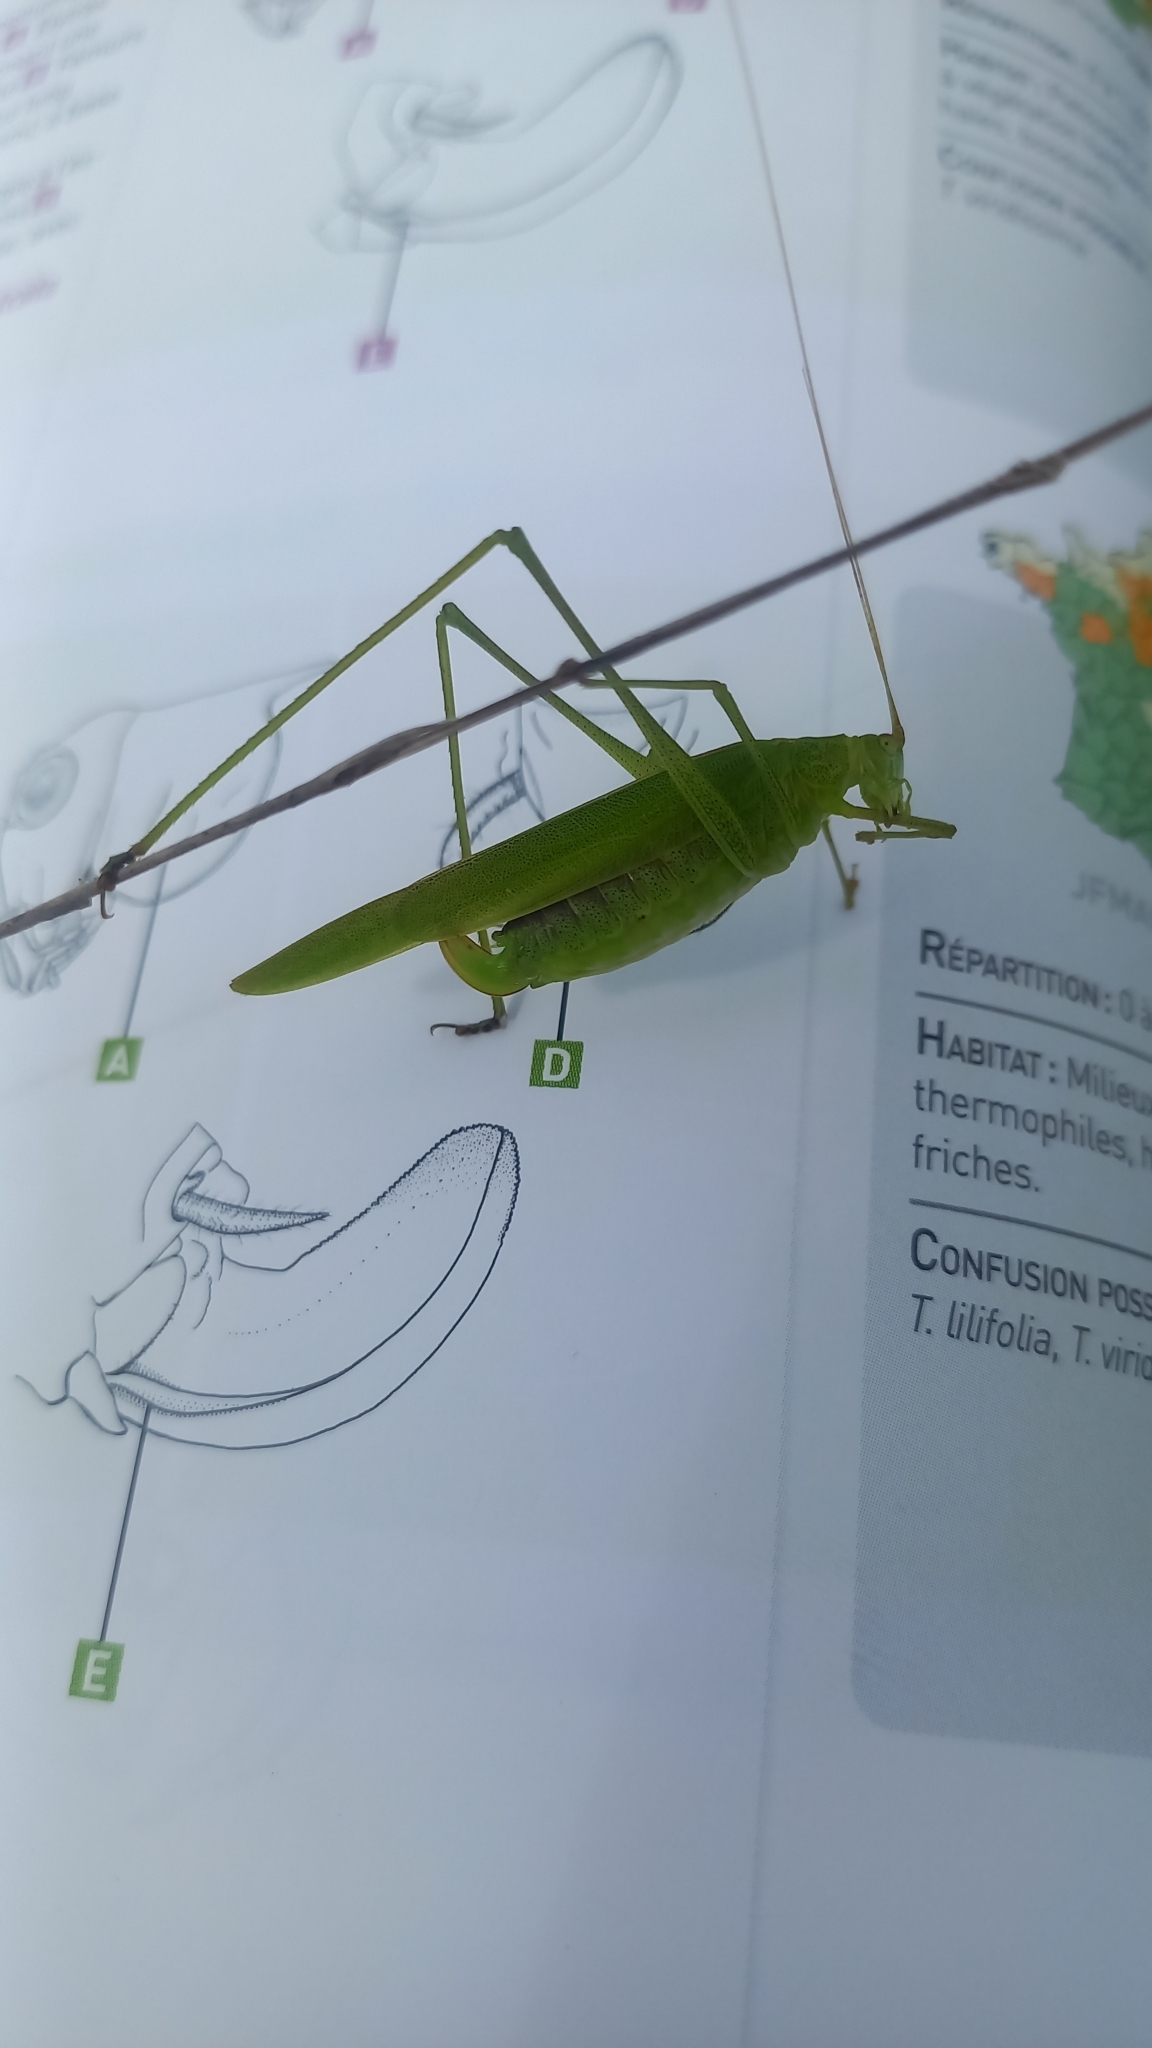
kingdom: Animalia
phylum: Arthropoda
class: Insecta
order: Orthoptera
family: Tettigoniidae
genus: Phaneroptera
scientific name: Phaneroptera falcata
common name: Sickle-bearing bush-cricket
